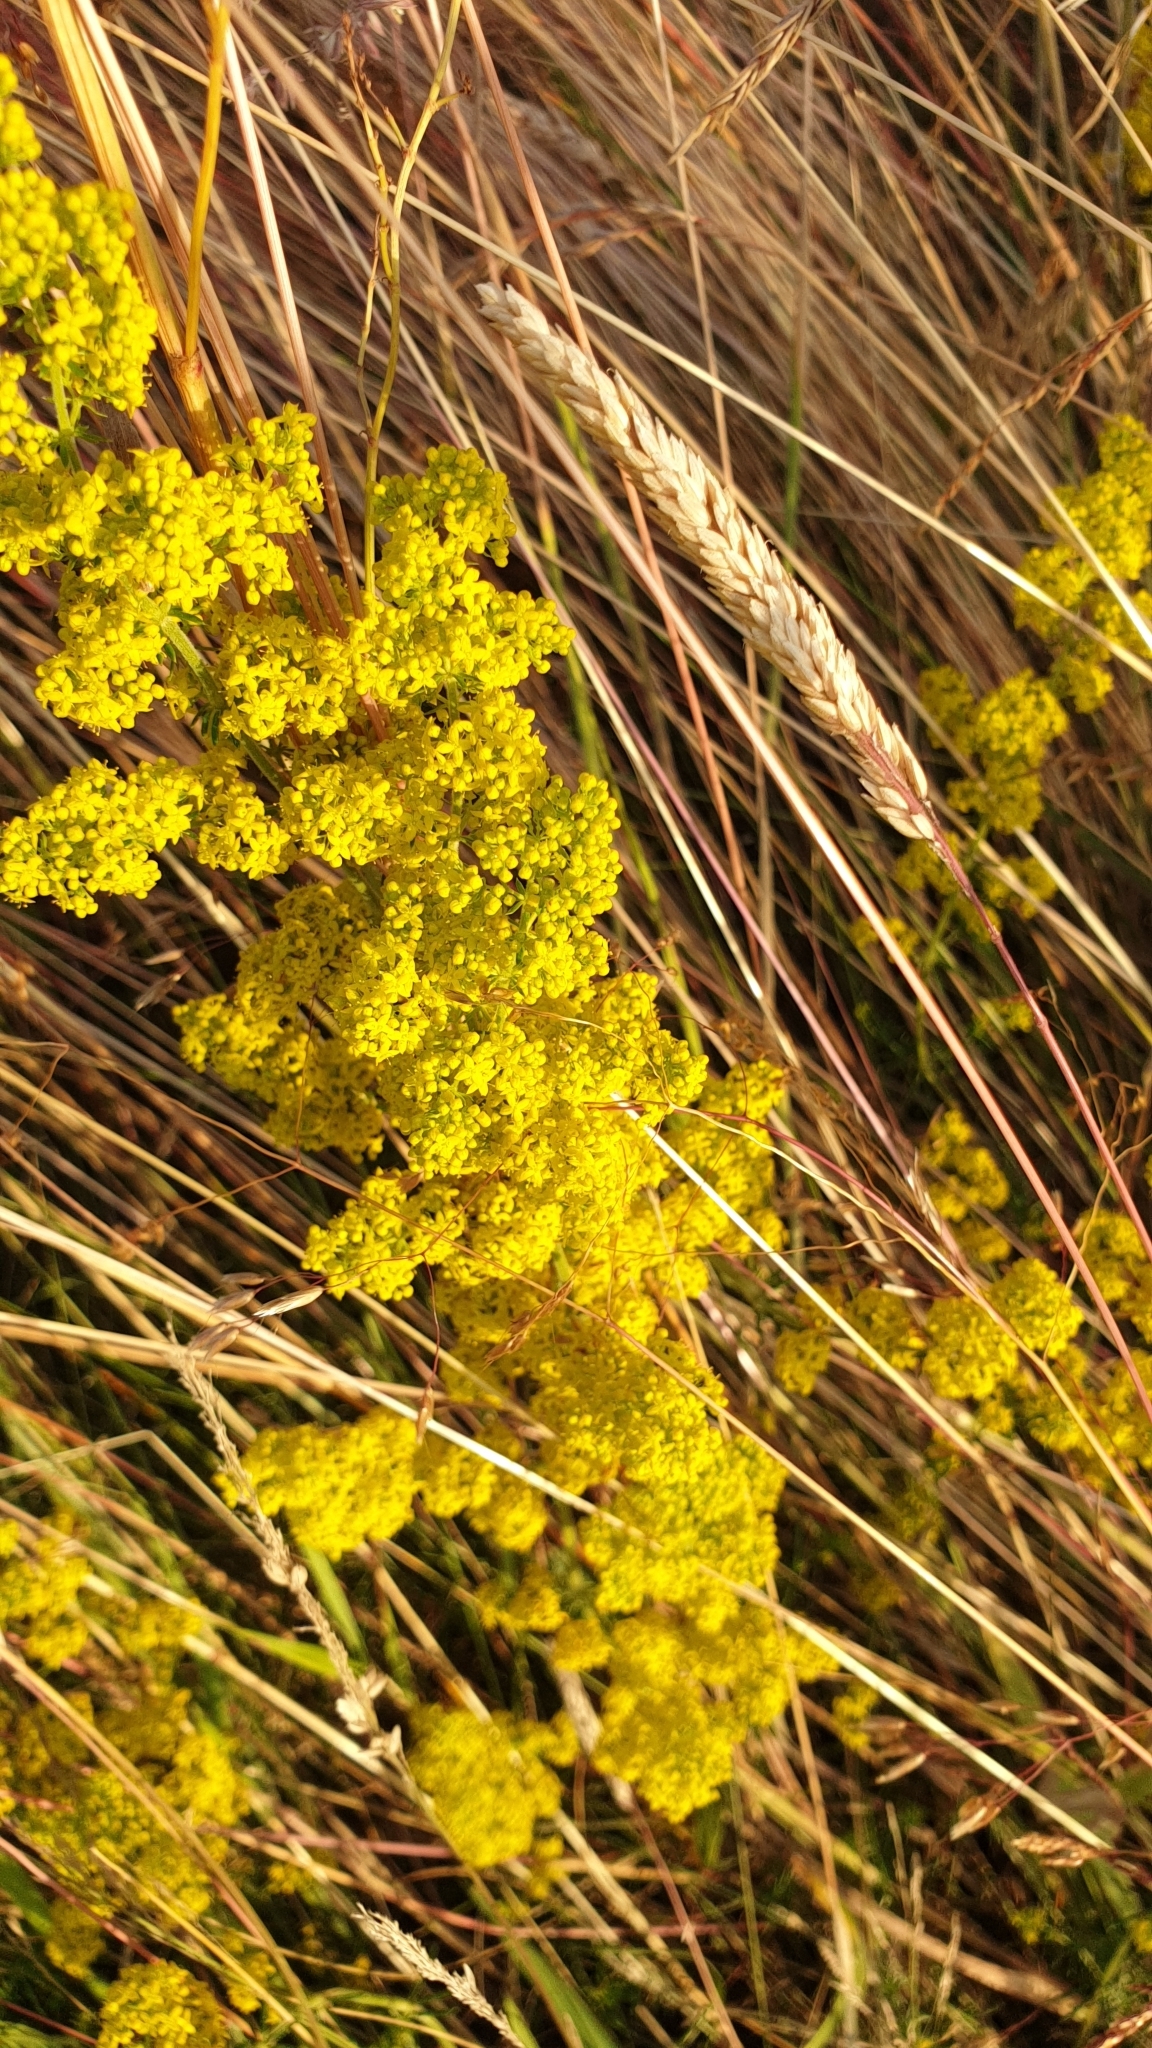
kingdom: Plantae
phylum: Tracheophyta
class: Magnoliopsida
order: Gentianales
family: Rubiaceae
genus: Galium
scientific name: Galium verum
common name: Lady's bedstraw
